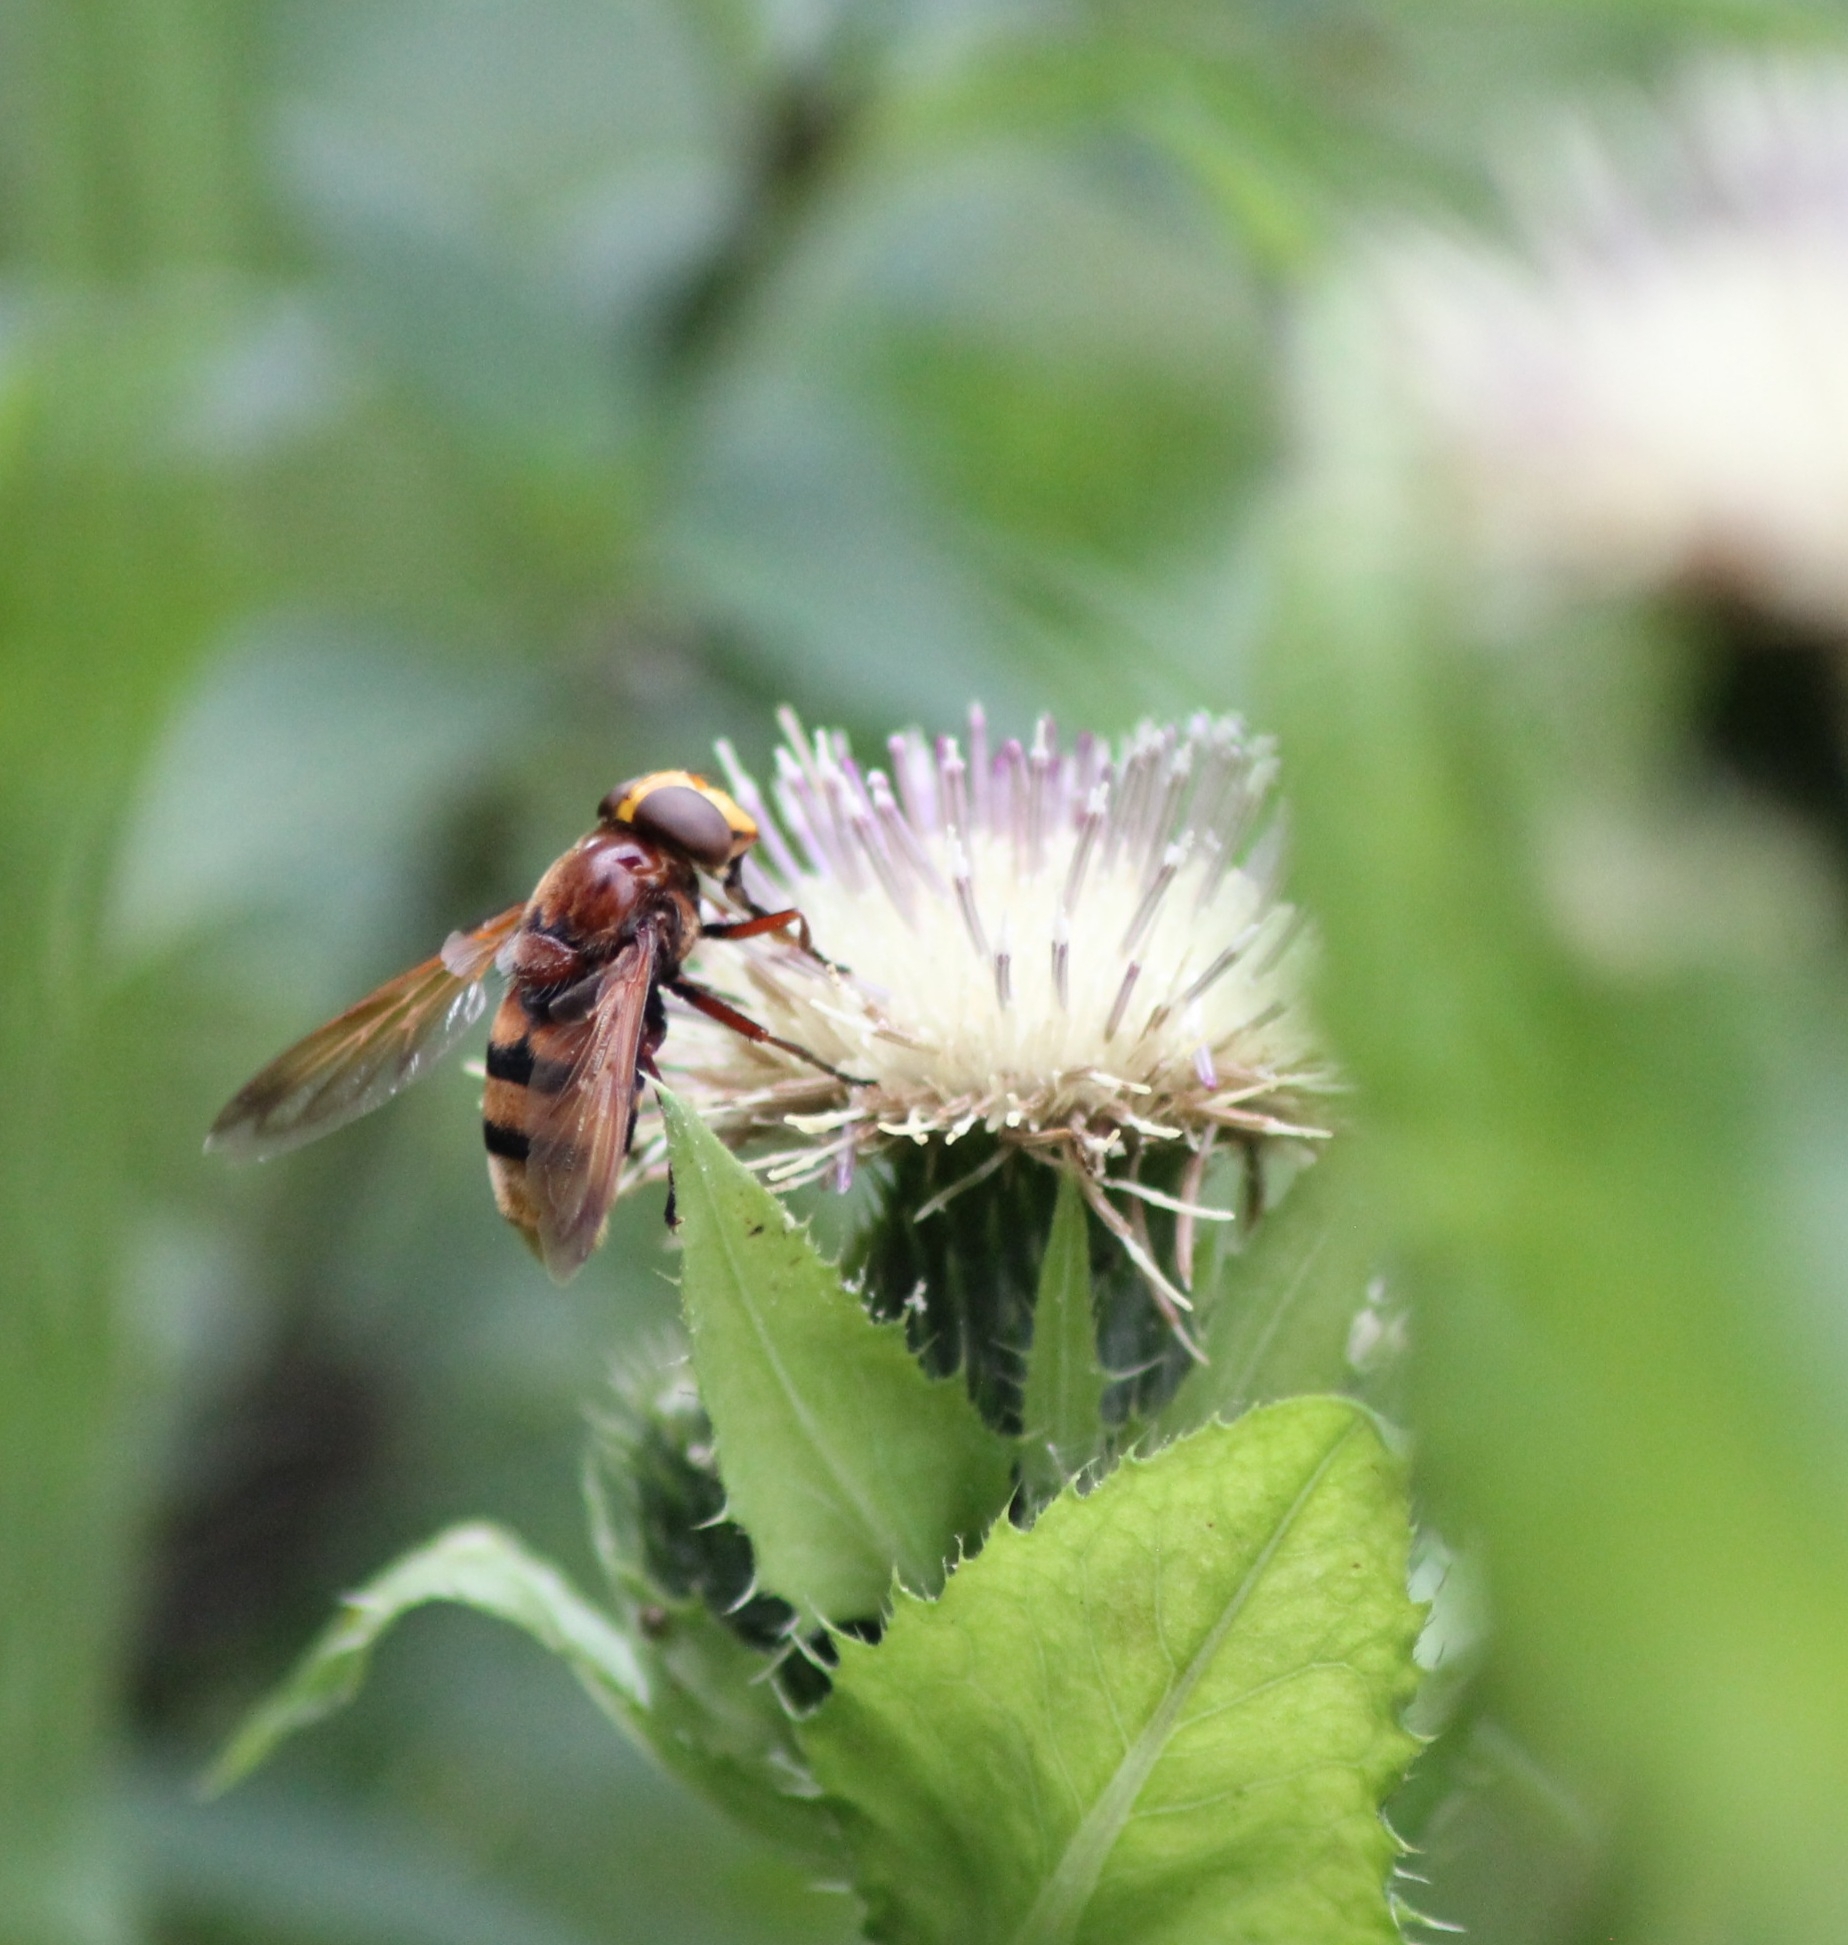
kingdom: Animalia
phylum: Arthropoda
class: Insecta
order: Diptera
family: Syrphidae
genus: Volucella
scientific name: Volucella zonaria
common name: Hornet hoverfly
